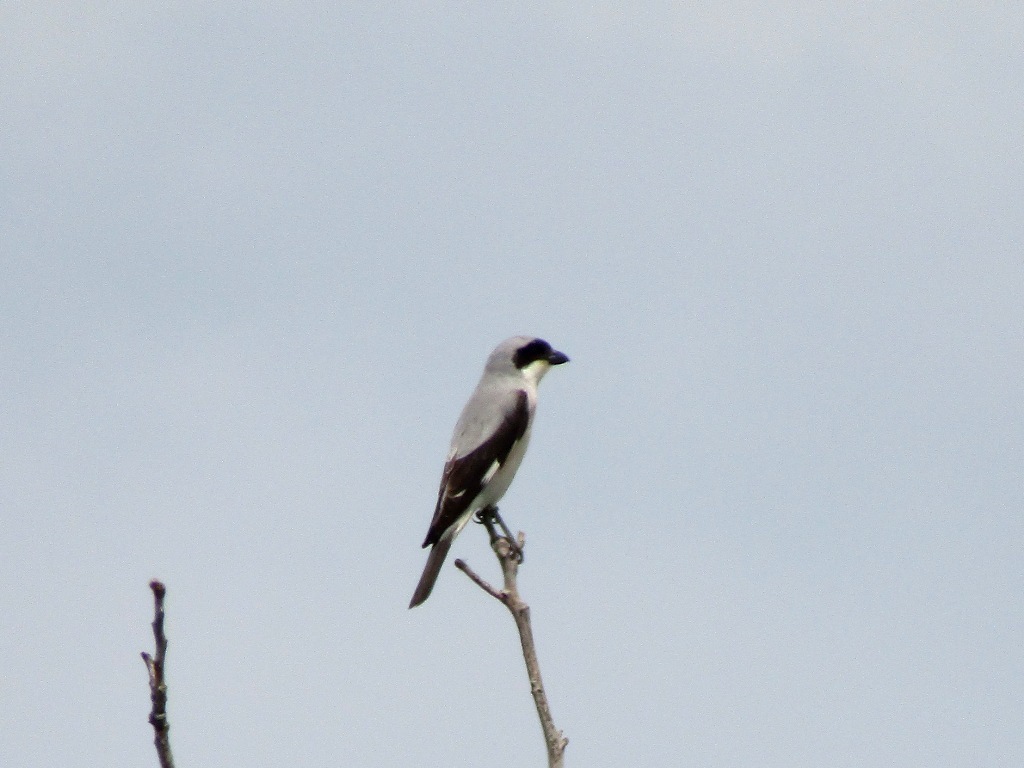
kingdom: Animalia
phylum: Chordata
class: Aves
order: Passeriformes
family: Laniidae
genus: Lanius
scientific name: Lanius minor
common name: Lesser grey shrike
